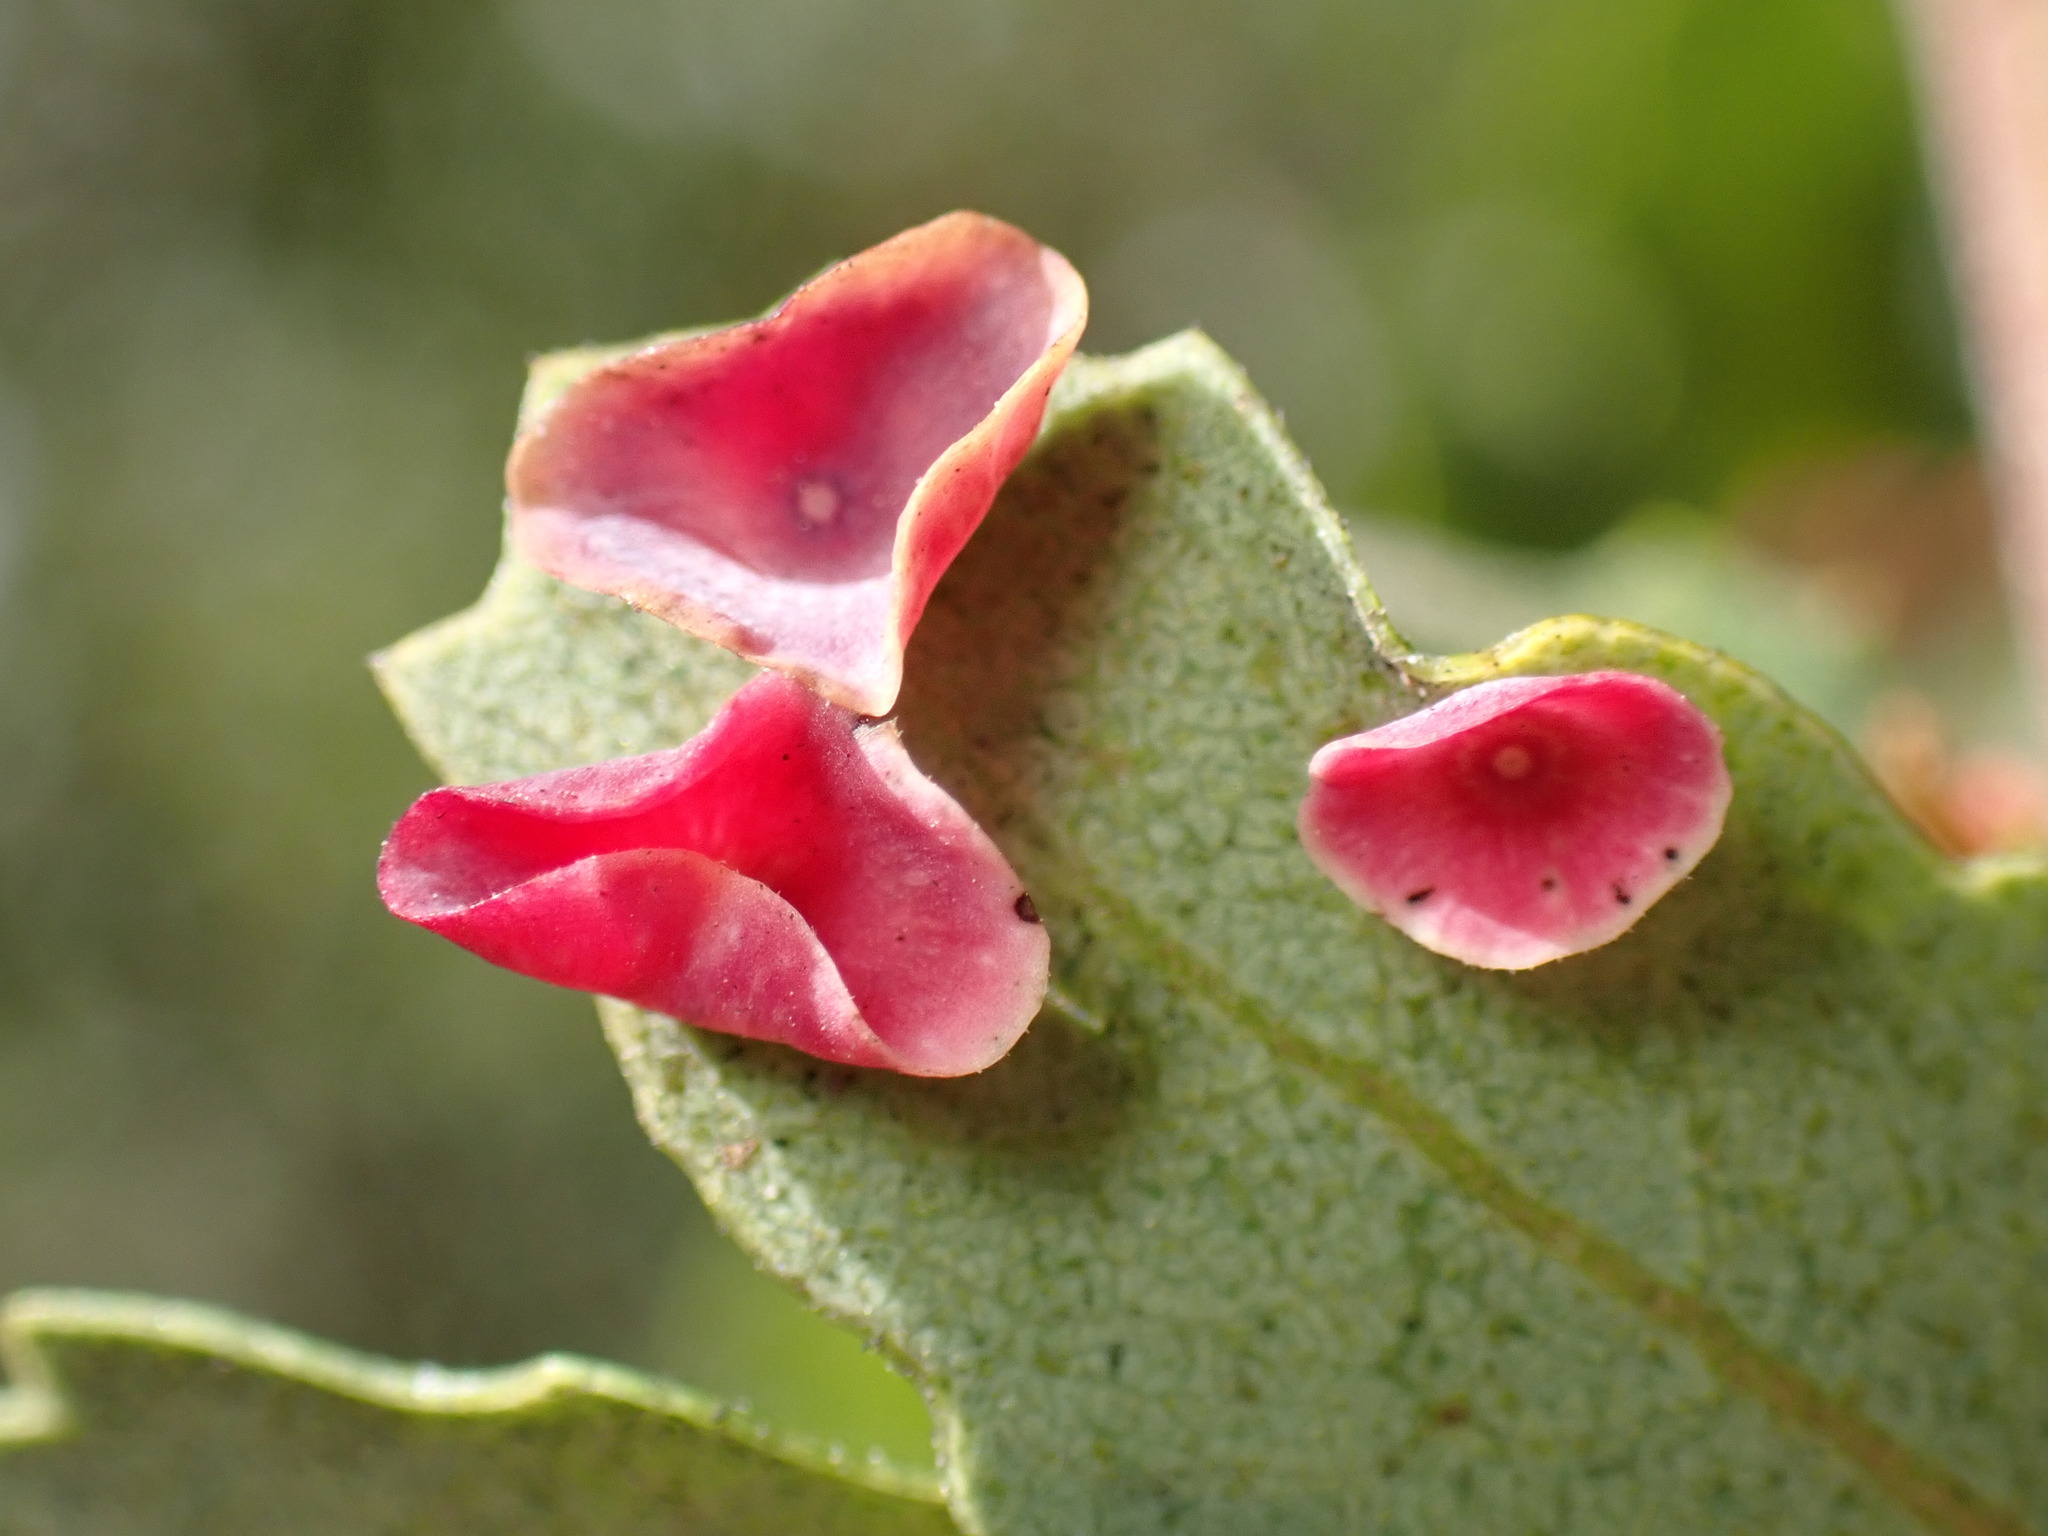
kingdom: Animalia
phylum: Arthropoda
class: Insecta
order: Hymenoptera
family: Cynipidae
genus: Andricus
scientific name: Andricus
